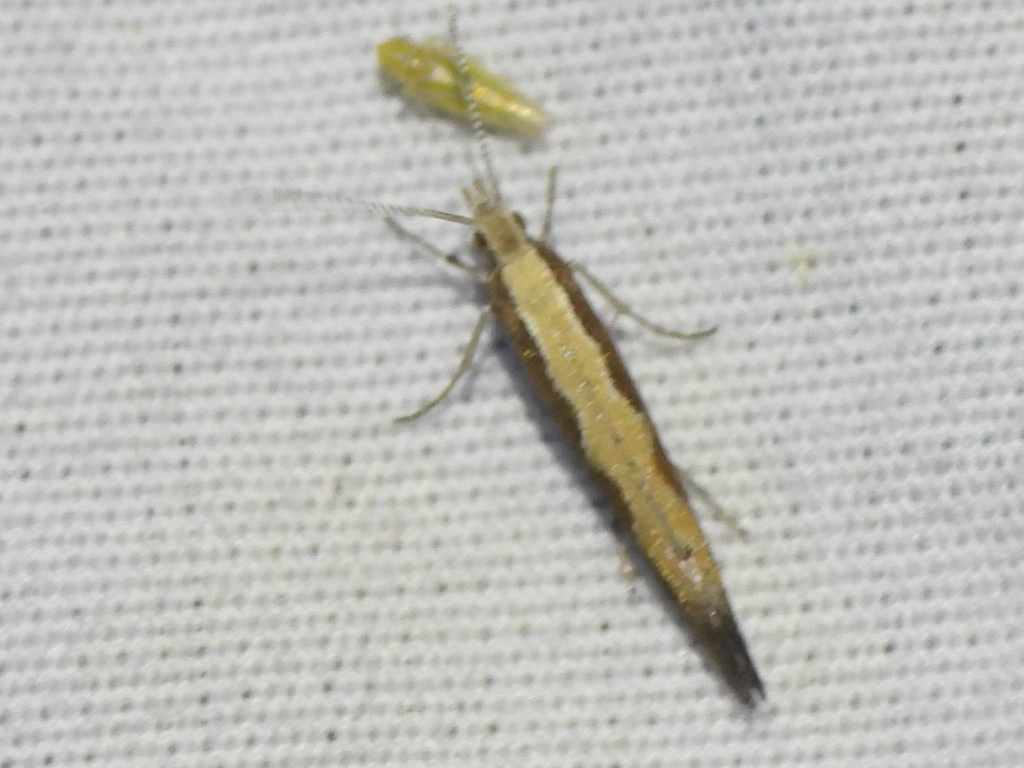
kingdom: Animalia
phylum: Arthropoda
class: Insecta
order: Lepidoptera
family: Plutellidae
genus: Plutella
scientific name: Plutella xylostella
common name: Diamond-back moth
